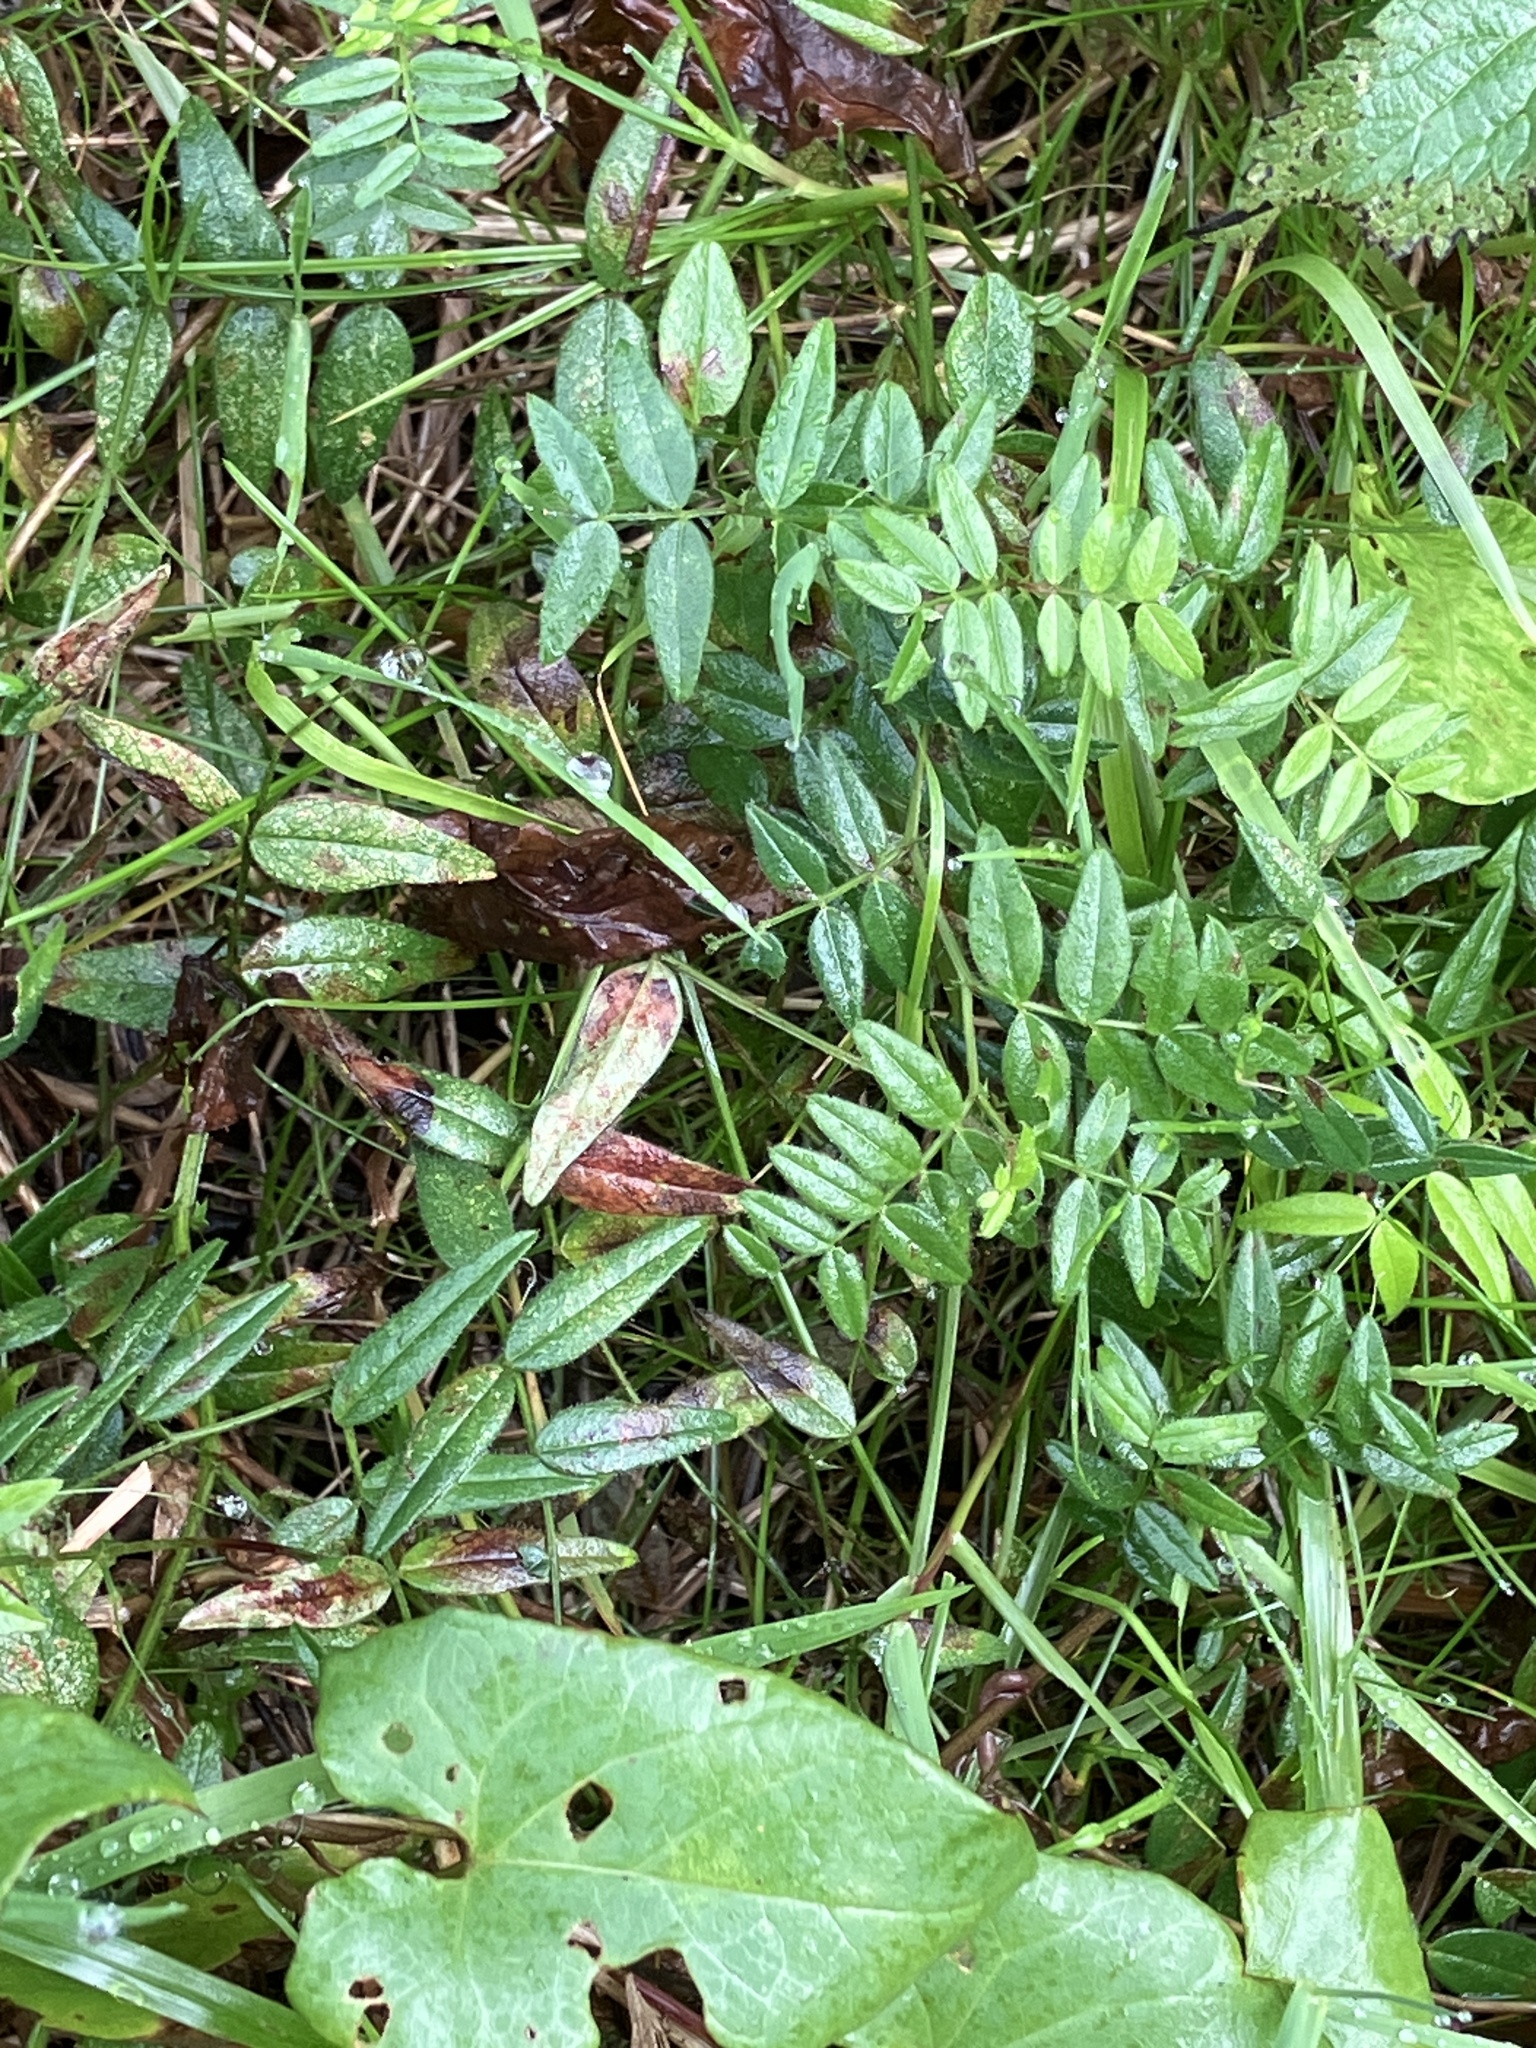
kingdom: Plantae
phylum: Tracheophyta
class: Magnoliopsida
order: Fabales
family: Fabaceae
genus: Vicia
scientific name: Vicia sepium
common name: Bush vetch
